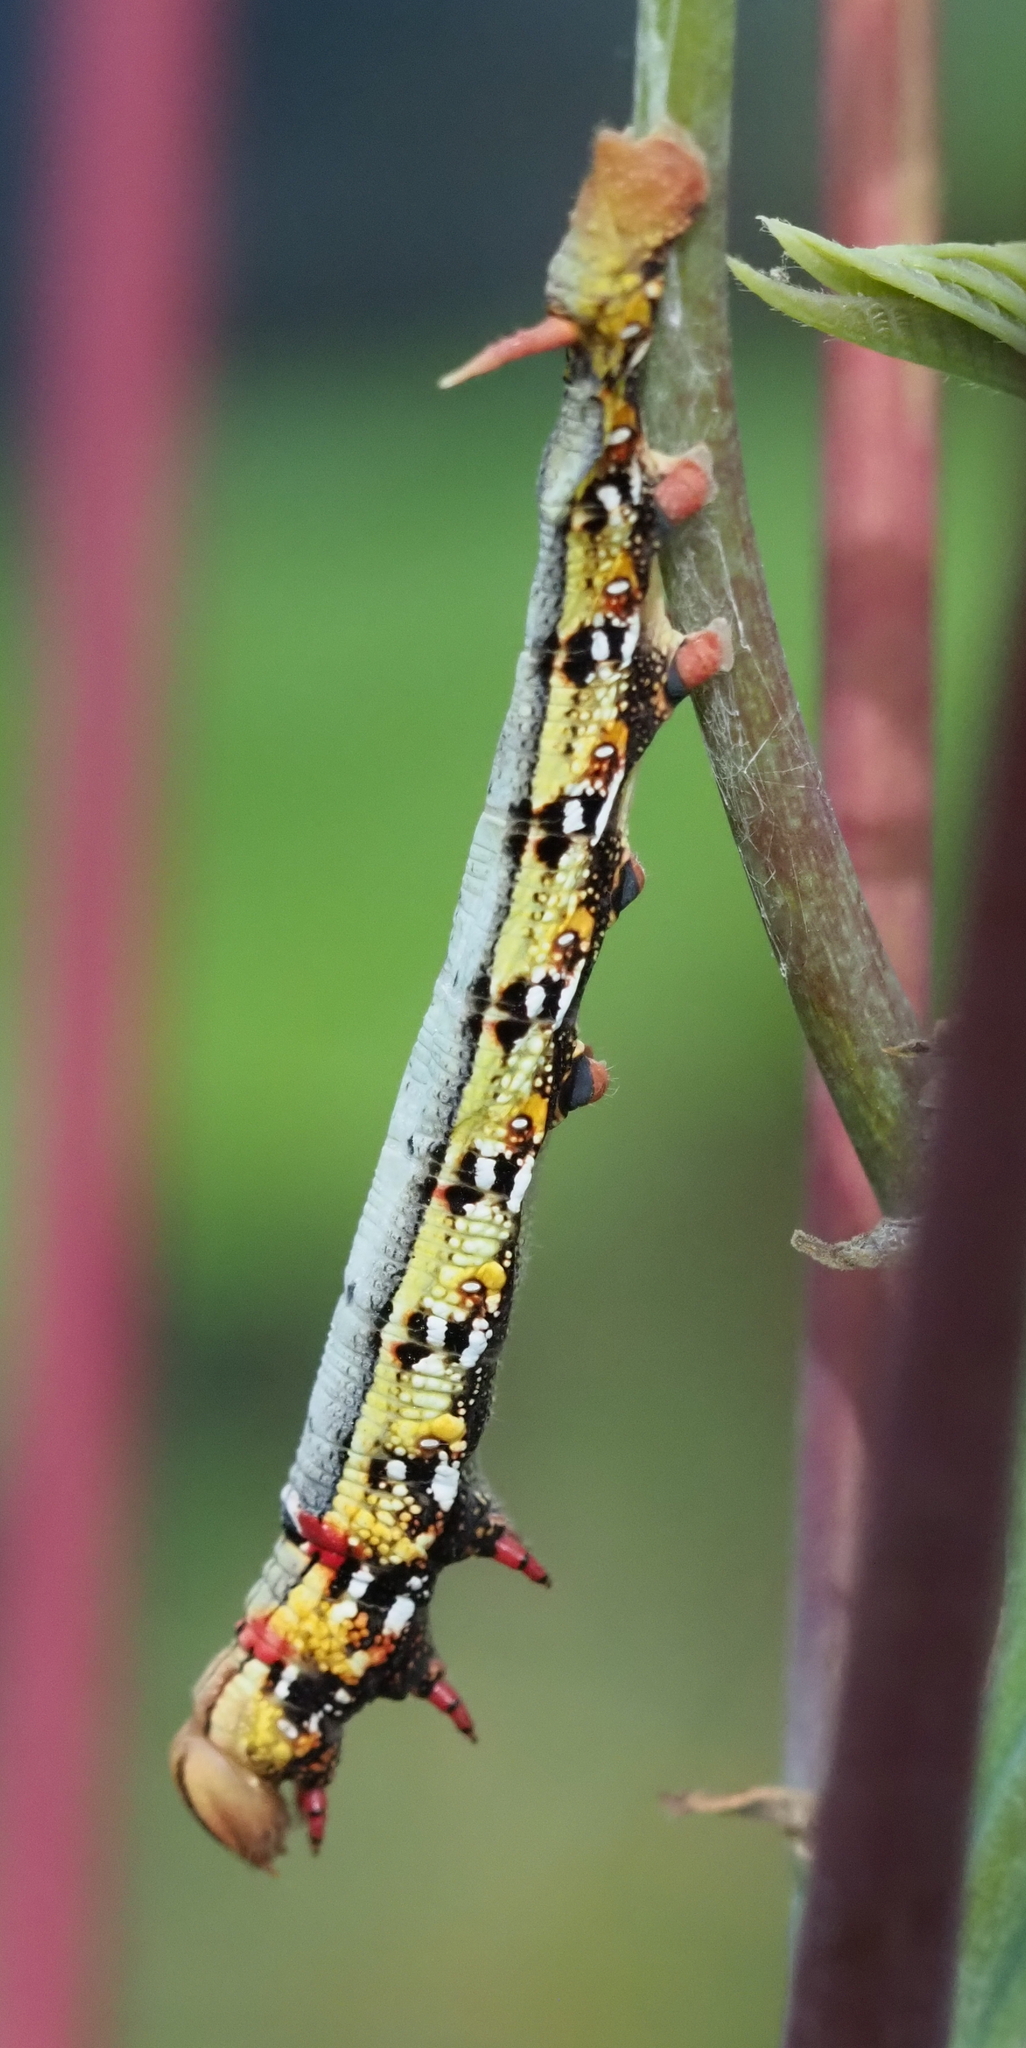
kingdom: Animalia
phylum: Arthropoda
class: Insecta
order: Lepidoptera
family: Sphingidae
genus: Erinnyis
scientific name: Erinnyis ello
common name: Ello sphinx
